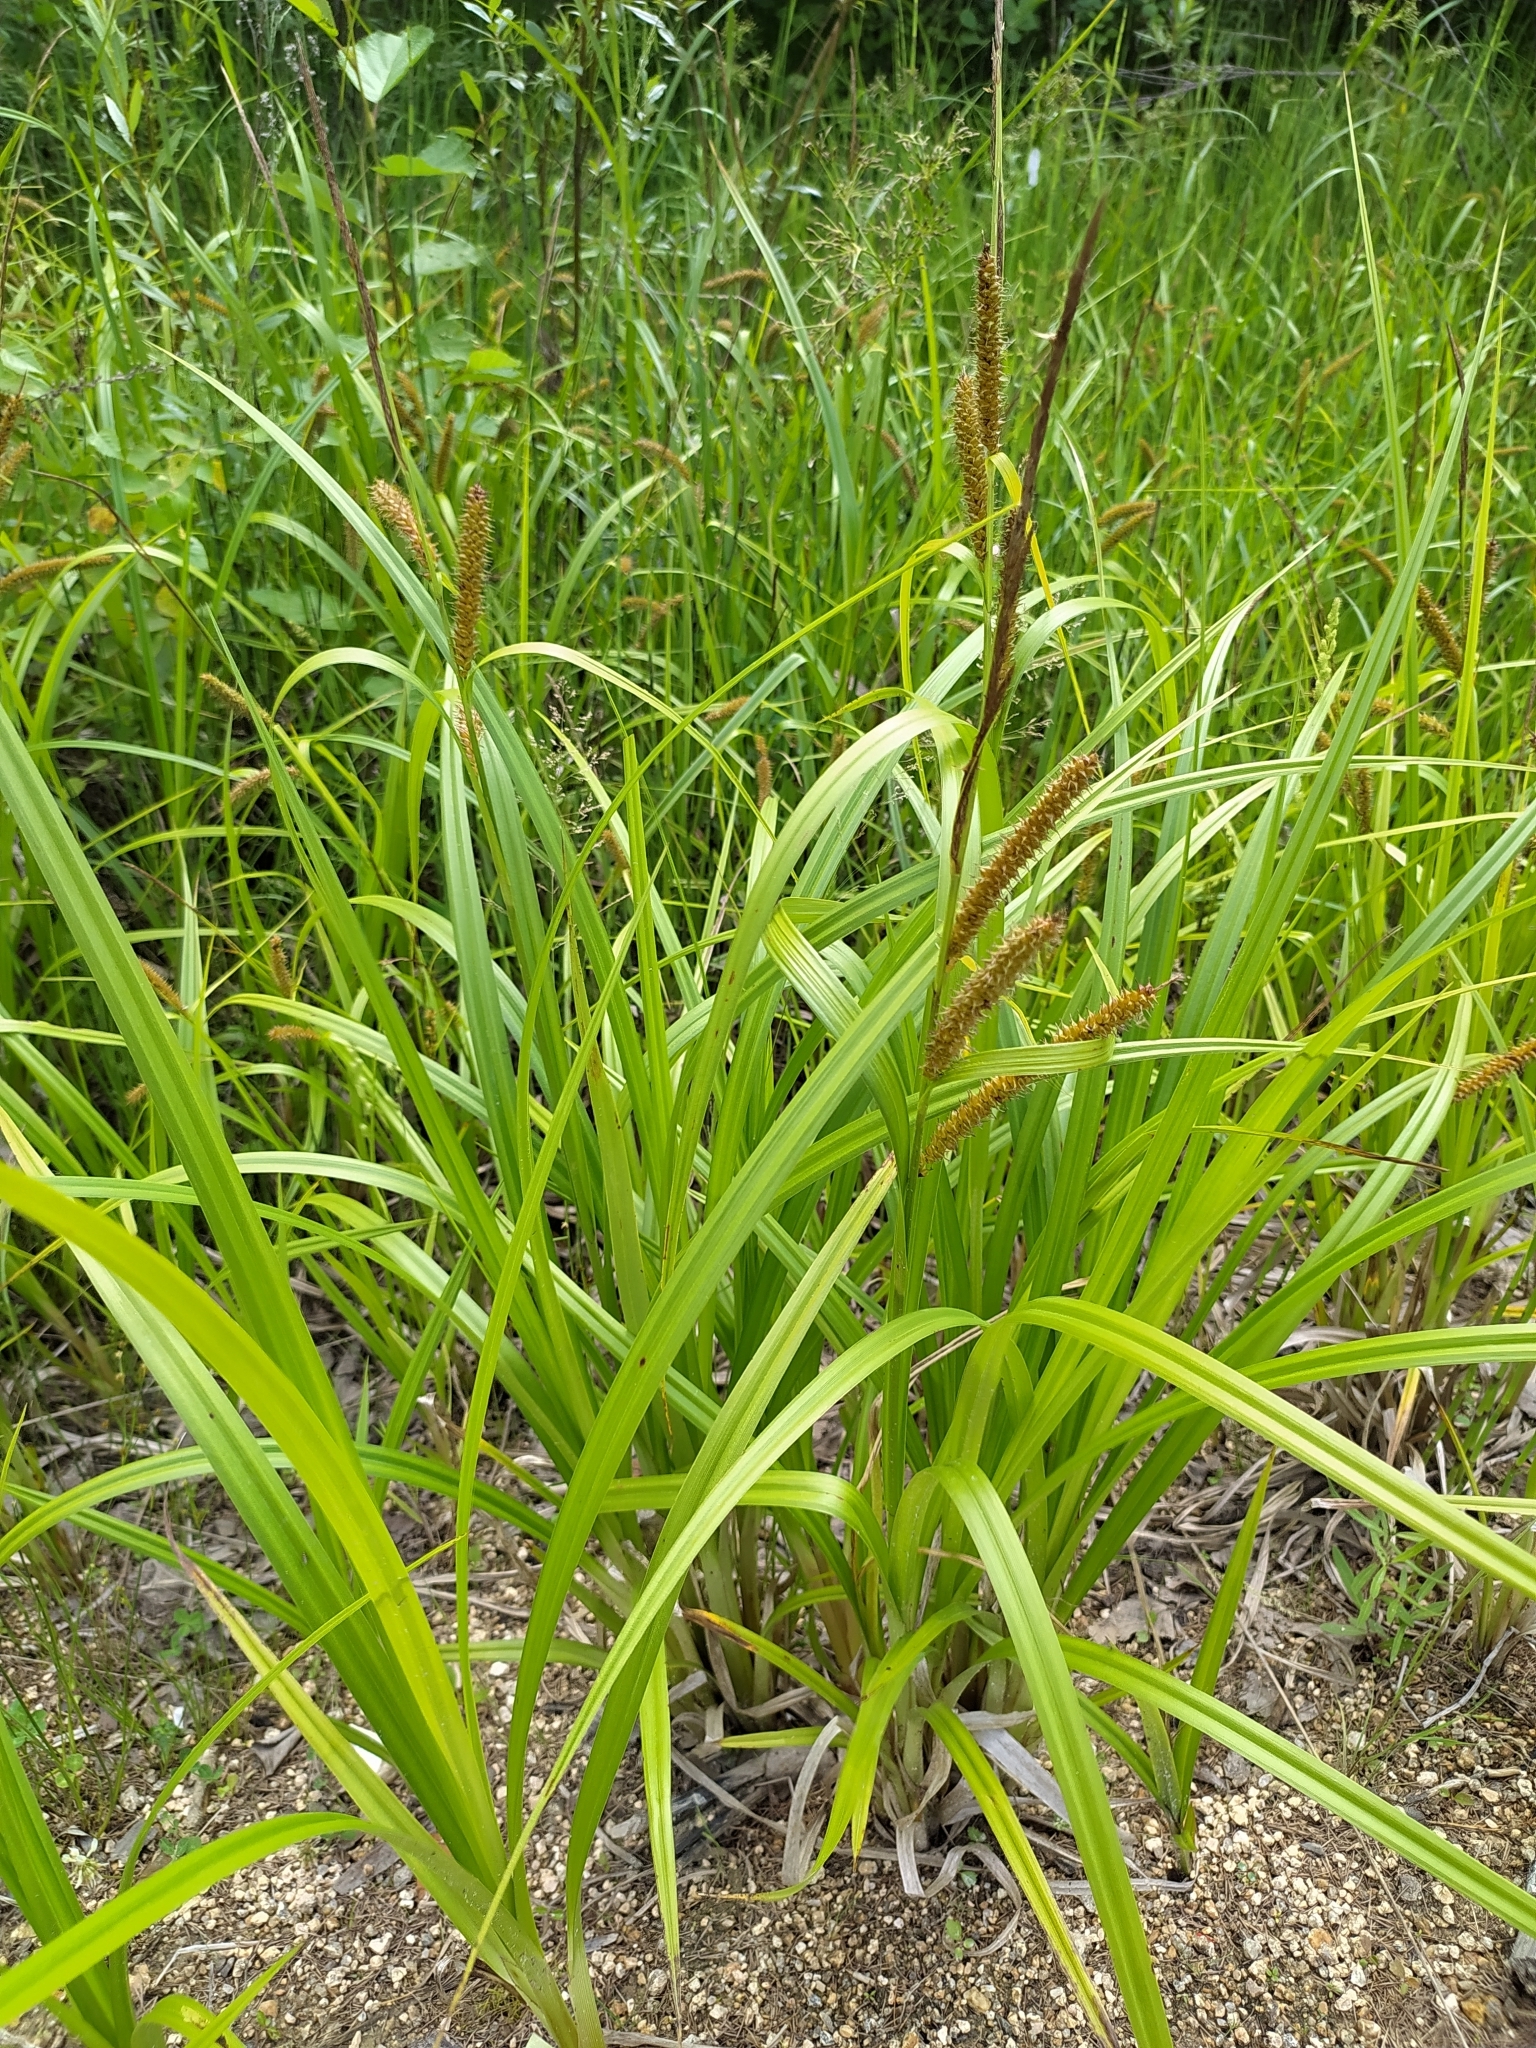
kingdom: Plantae
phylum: Tracheophyta
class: Liliopsida
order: Poales
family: Cyperaceae
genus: Carex
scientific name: Carex utriculata
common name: Beaked sedge
